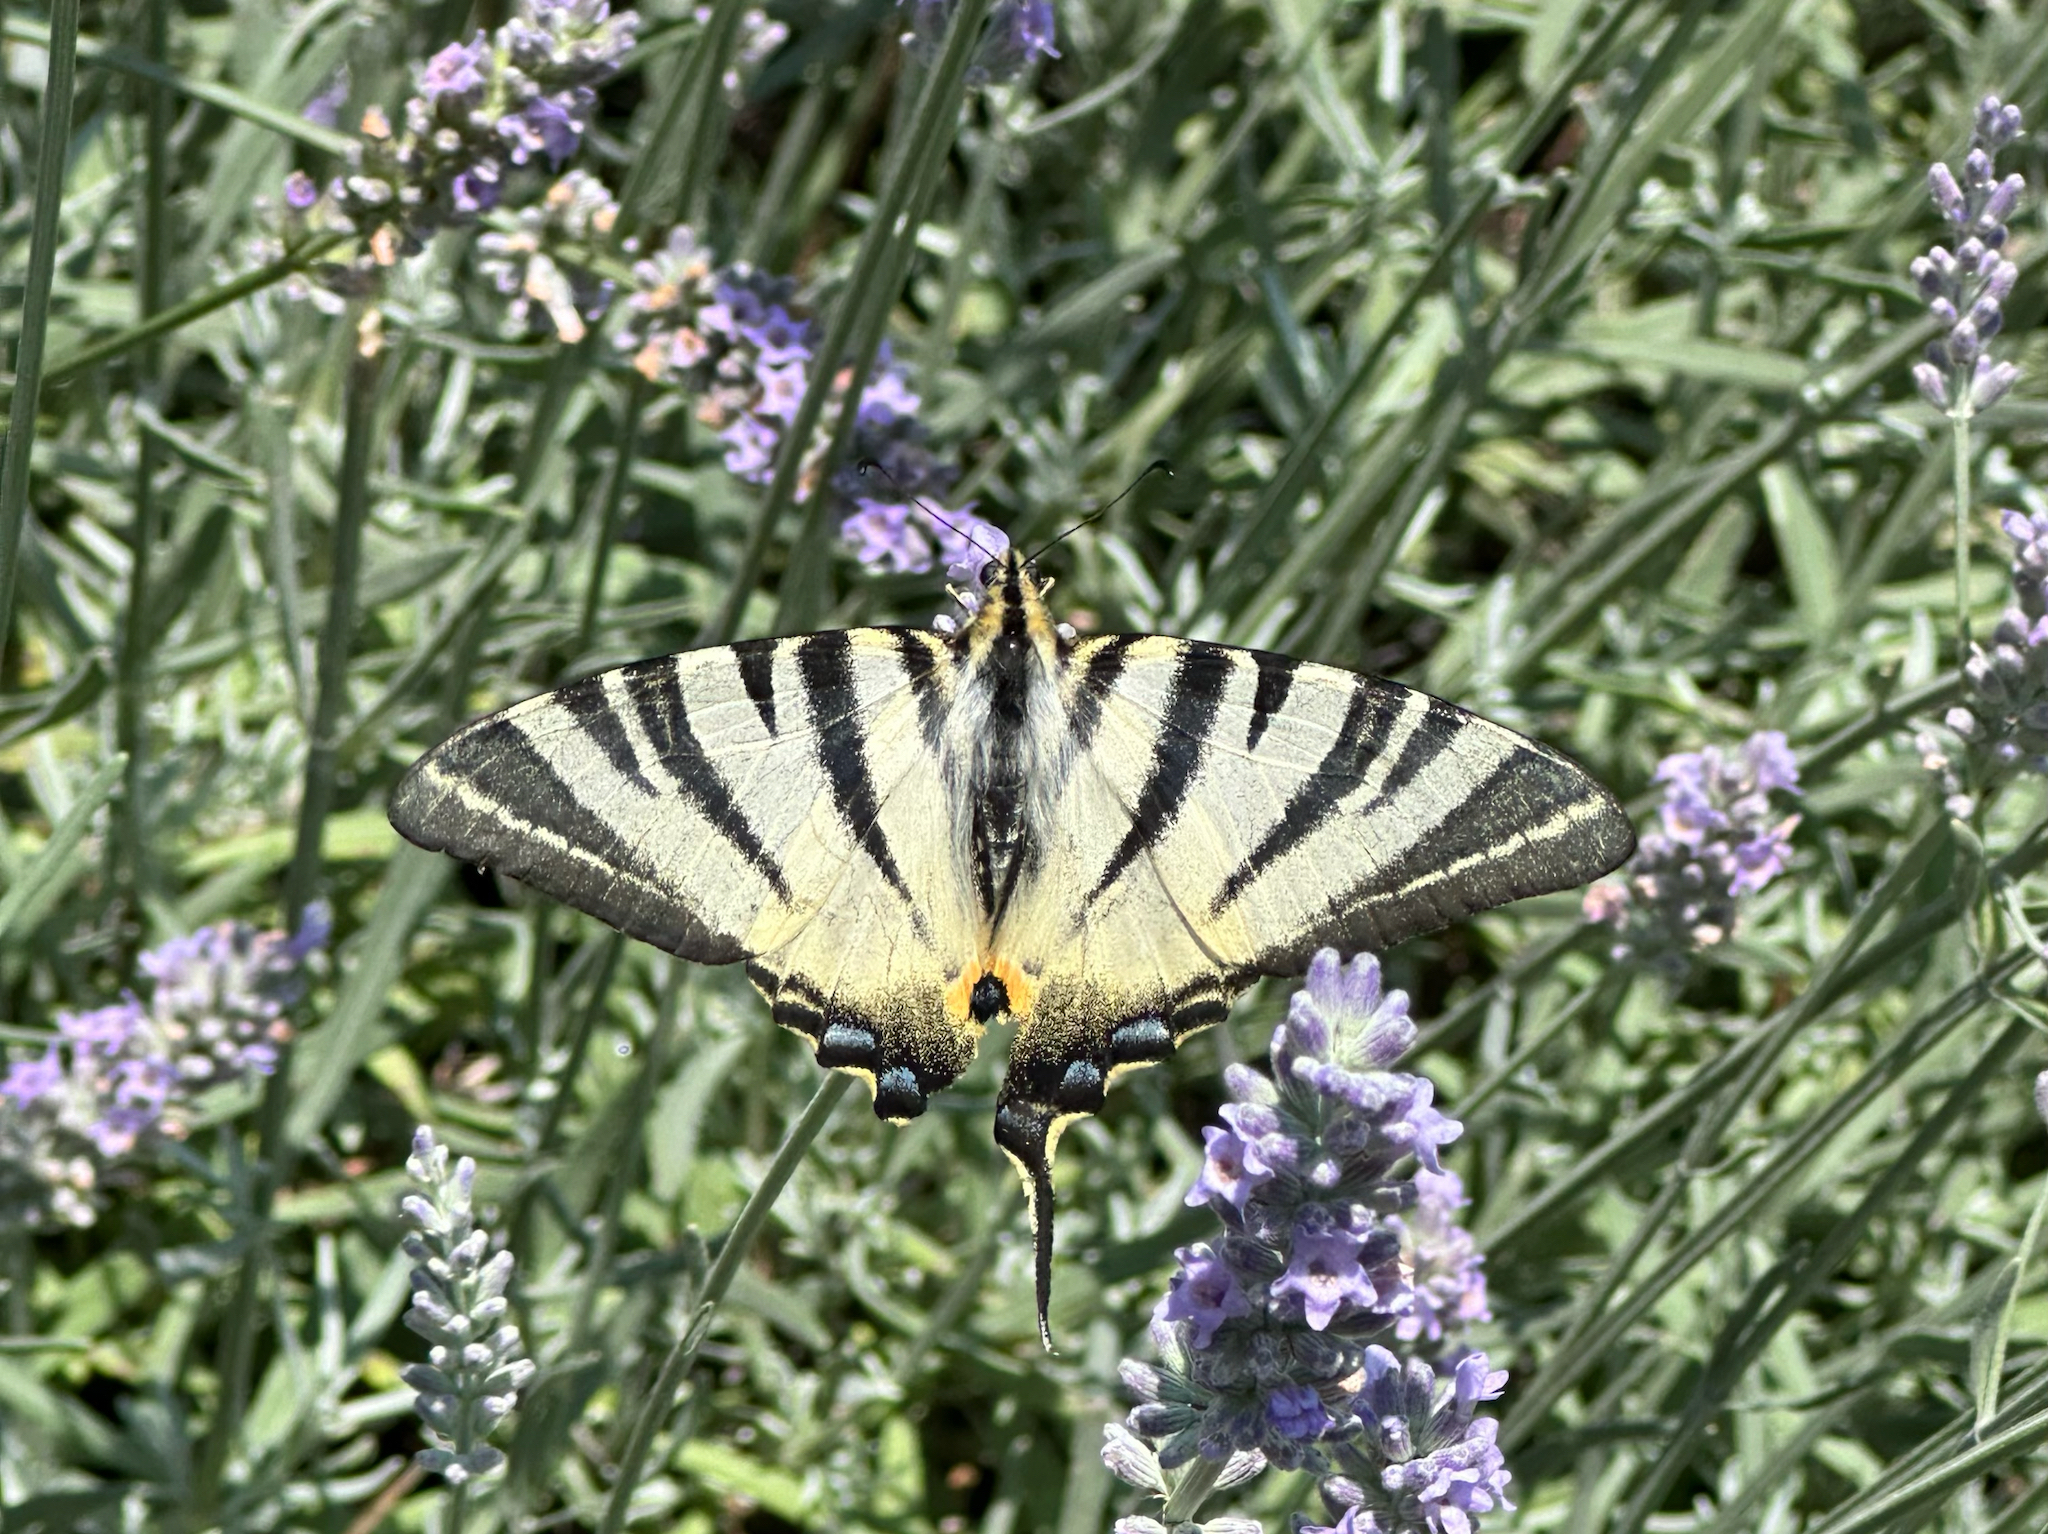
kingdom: Animalia
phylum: Arthropoda
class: Insecta
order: Lepidoptera
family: Papilionidae
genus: Iphiclides
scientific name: Iphiclides podalirius
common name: Scarce swallowtail
